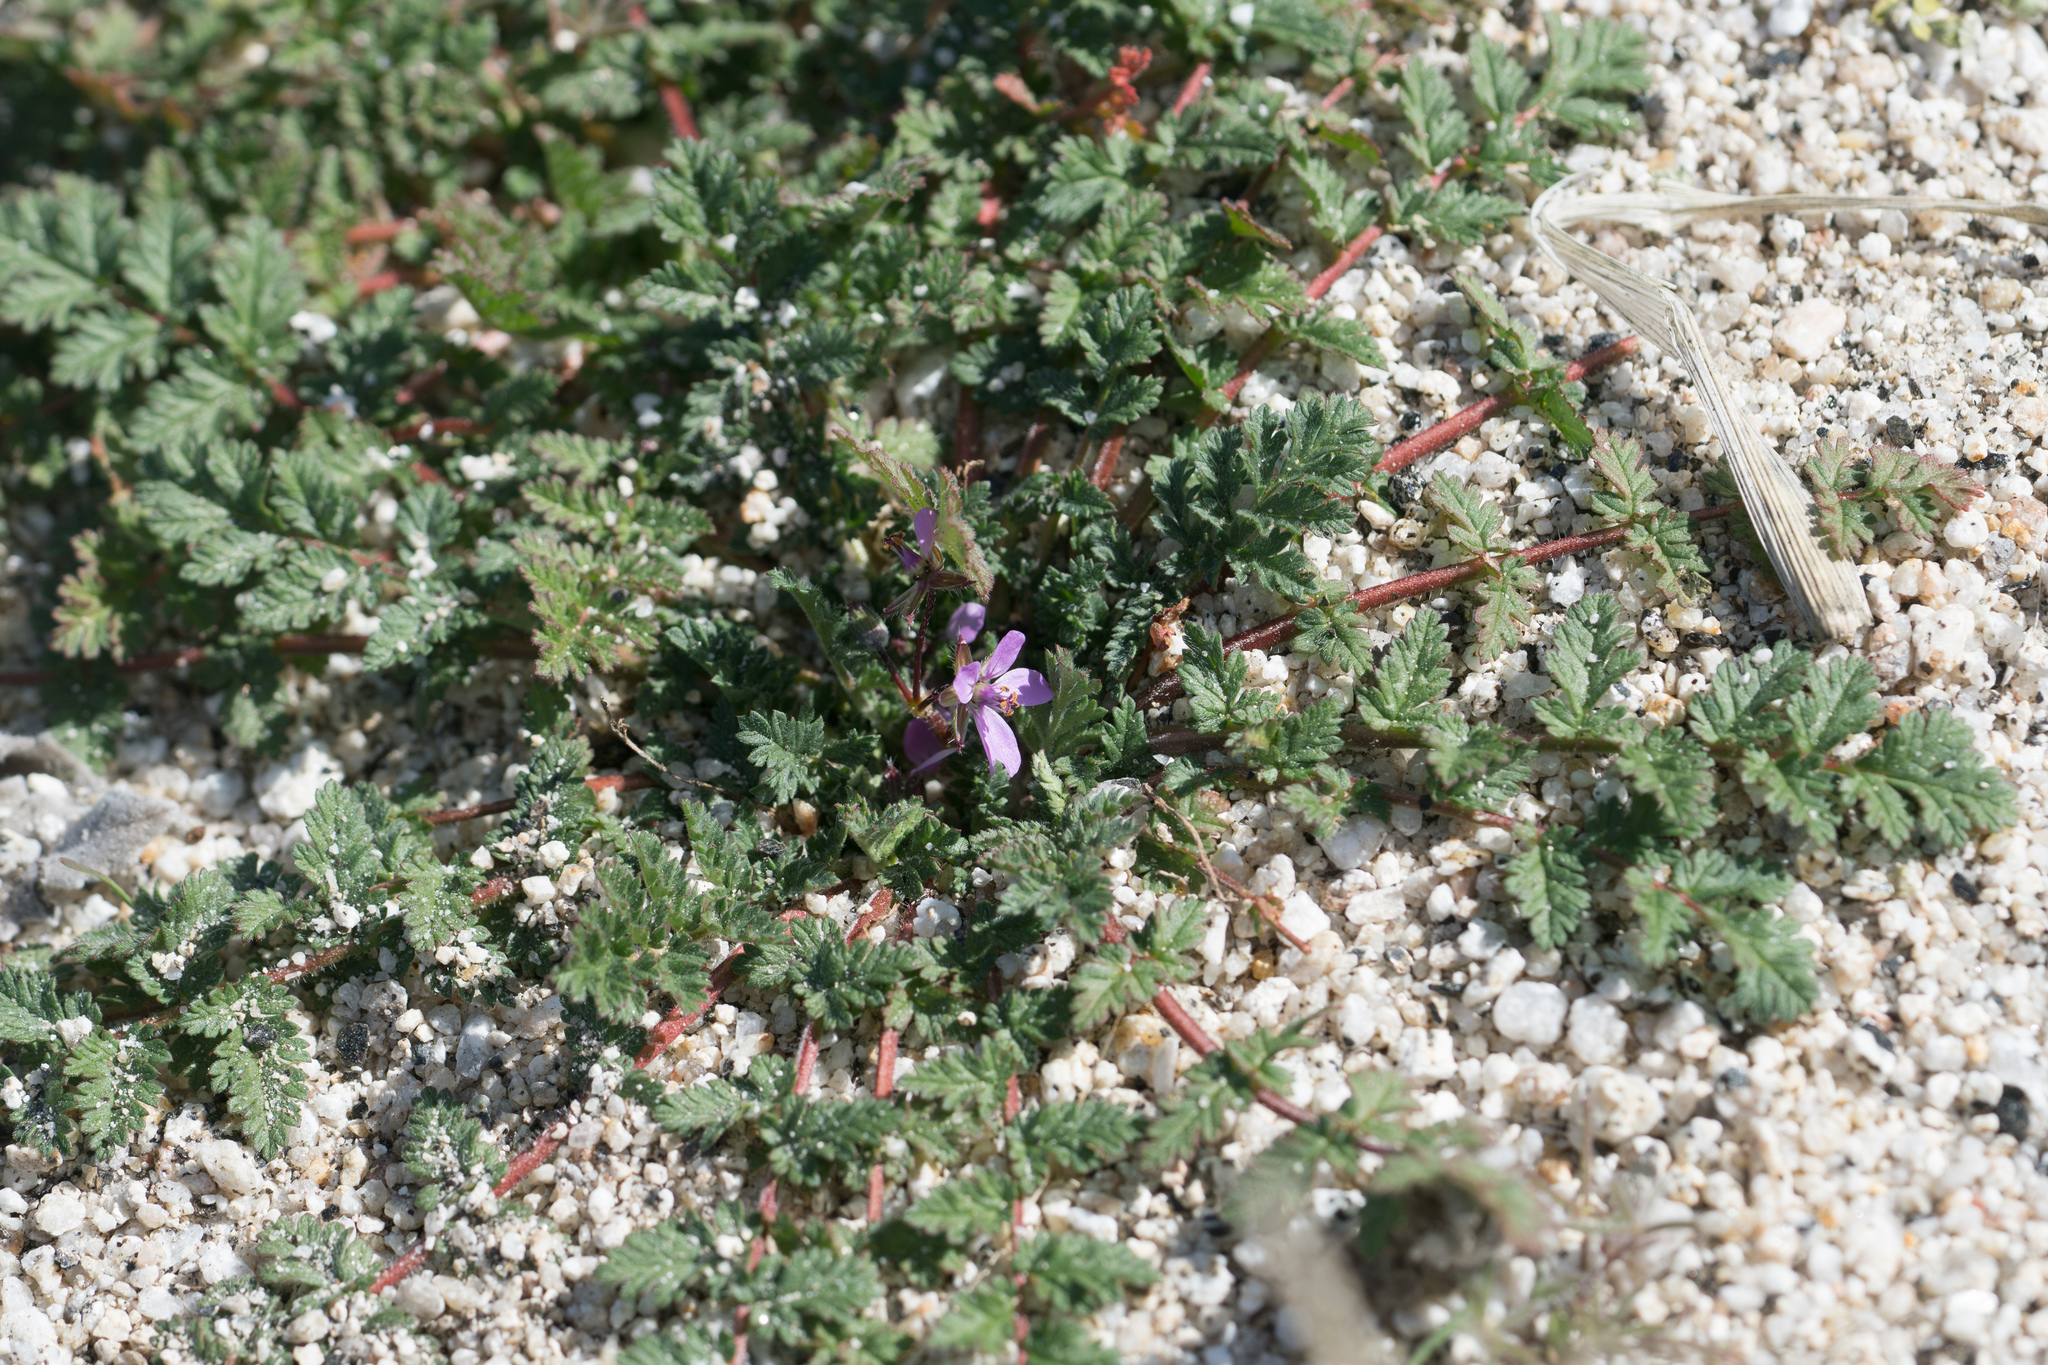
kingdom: Plantae
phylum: Tracheophyta
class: Magnoliopsida
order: Geraniales
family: Geraniaceae
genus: Erodium
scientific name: Erodium cicutarium
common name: Common stork's-bill
